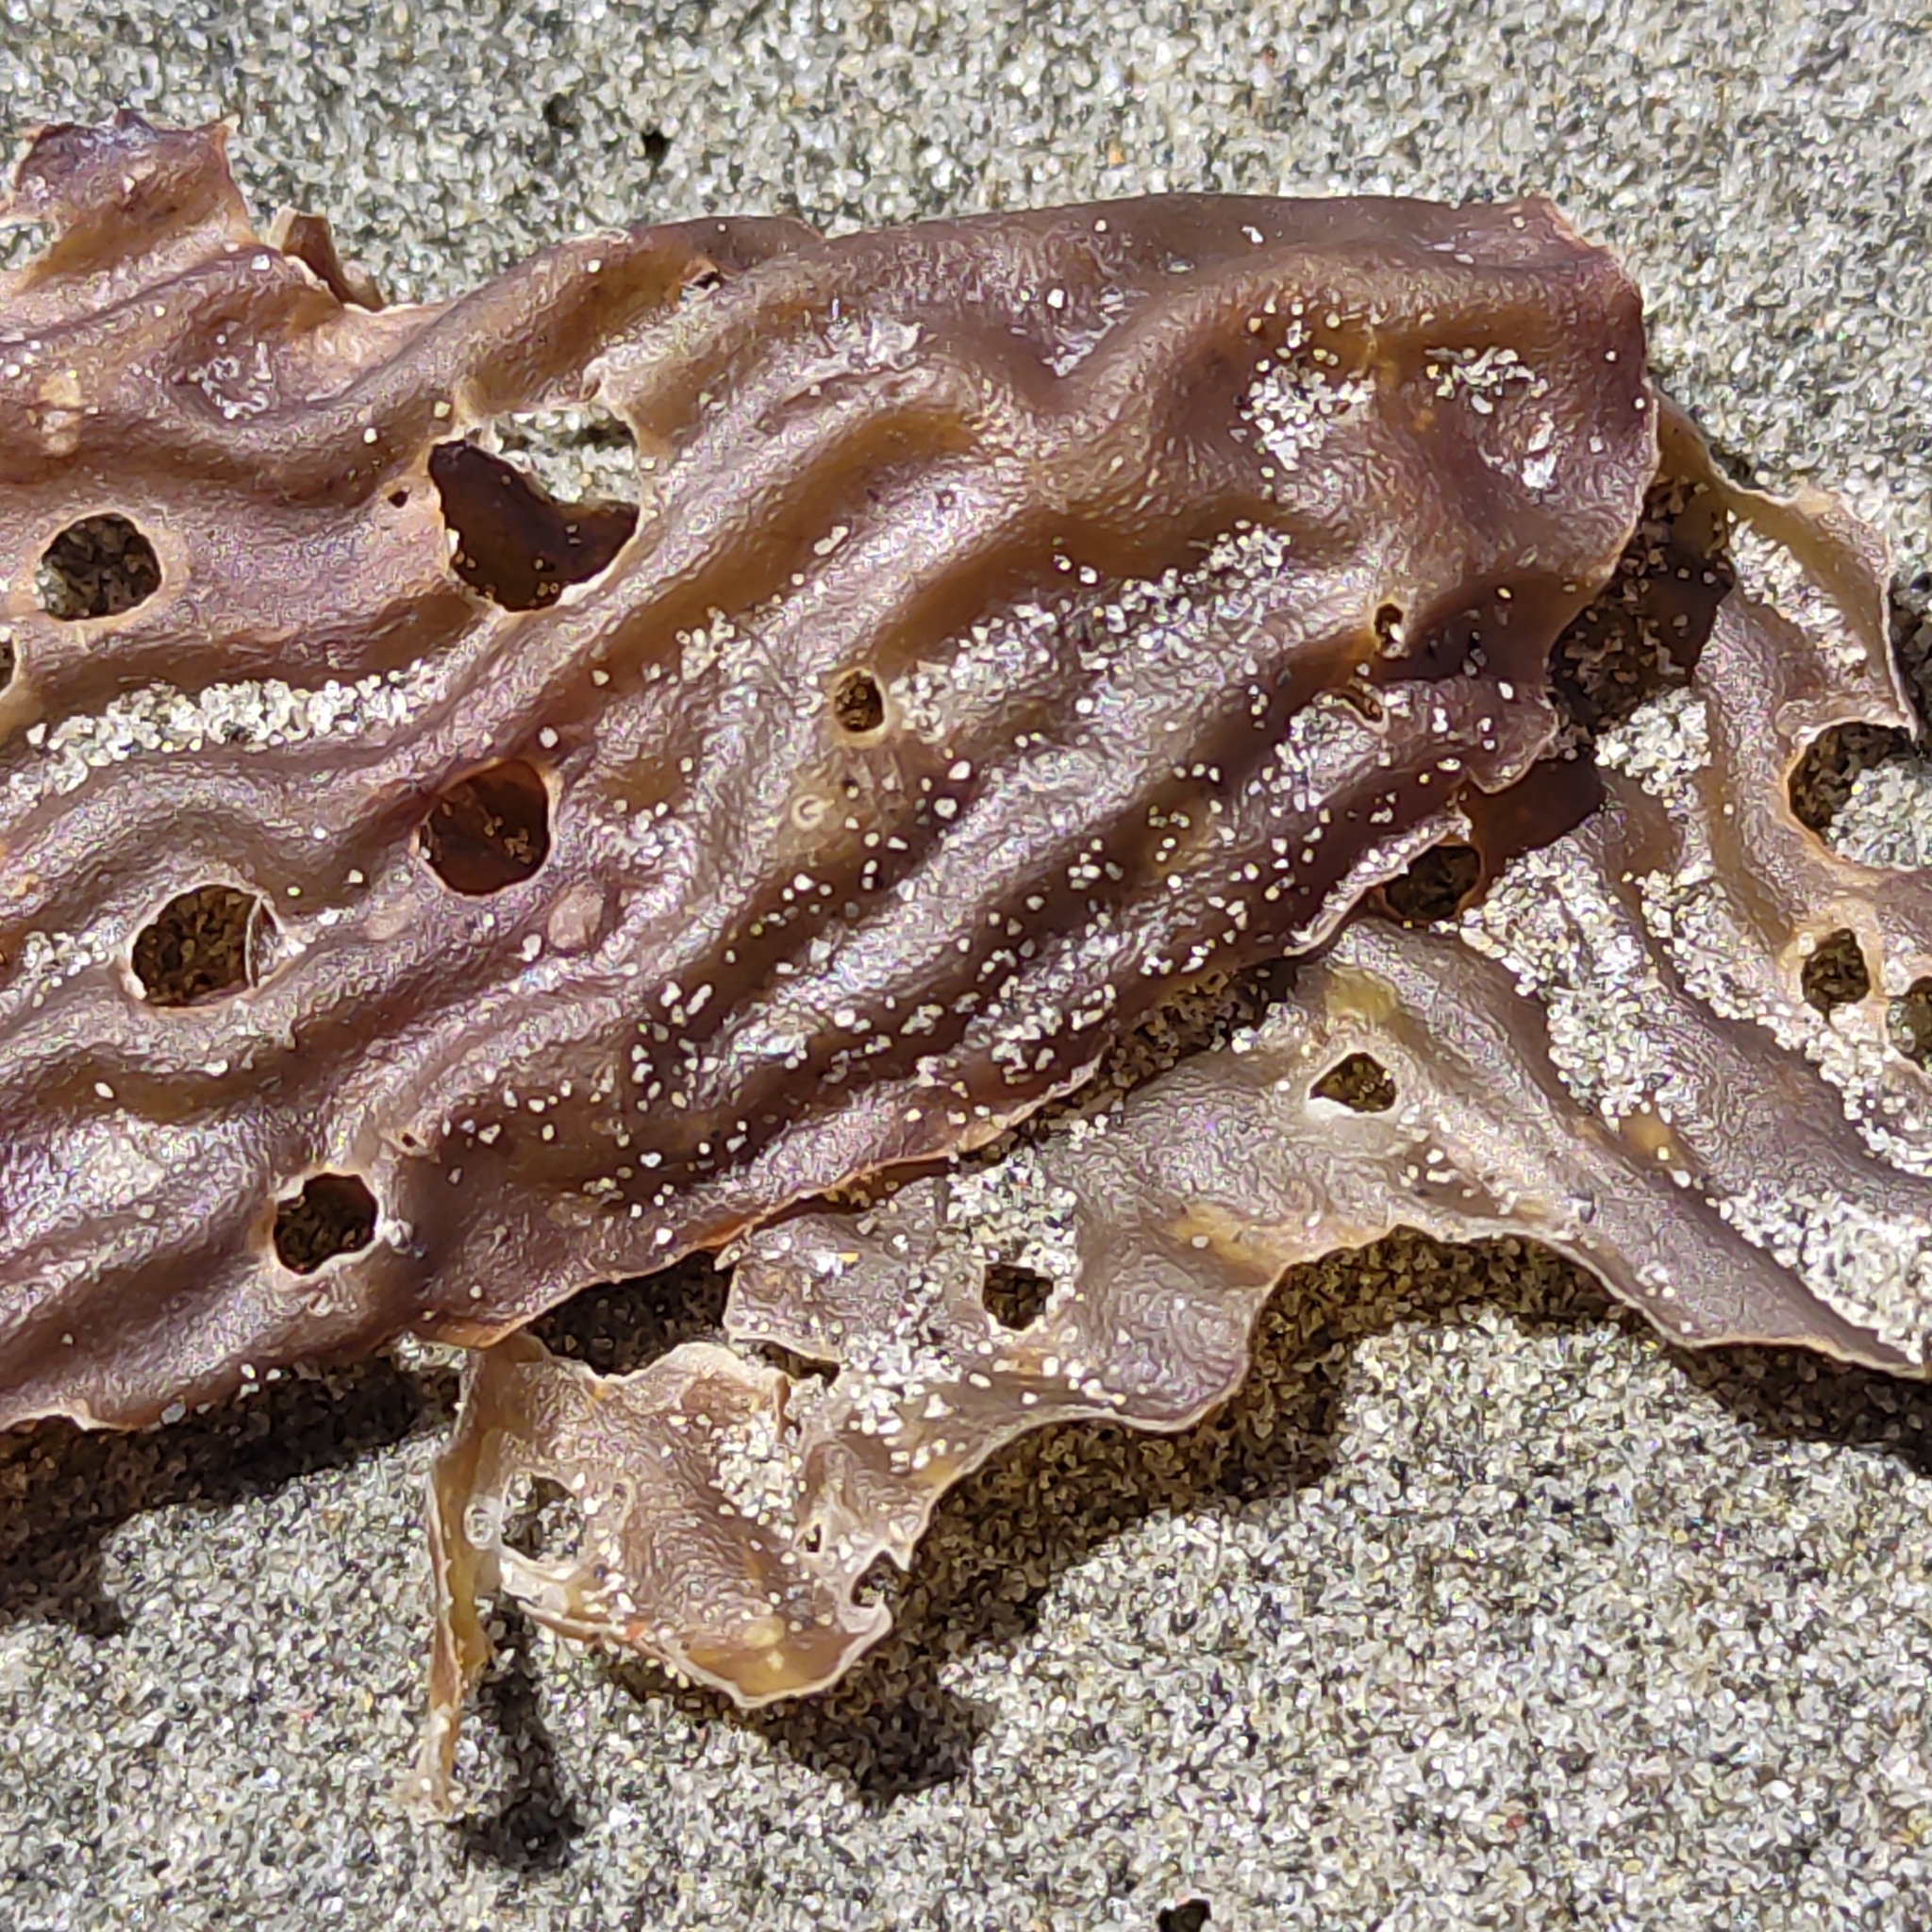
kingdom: Chromista
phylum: Ochrophyta
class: Phaeophyceae
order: Laminariales
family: Laminariaceae
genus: Macrocystis
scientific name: Macrocystis pyrifera
